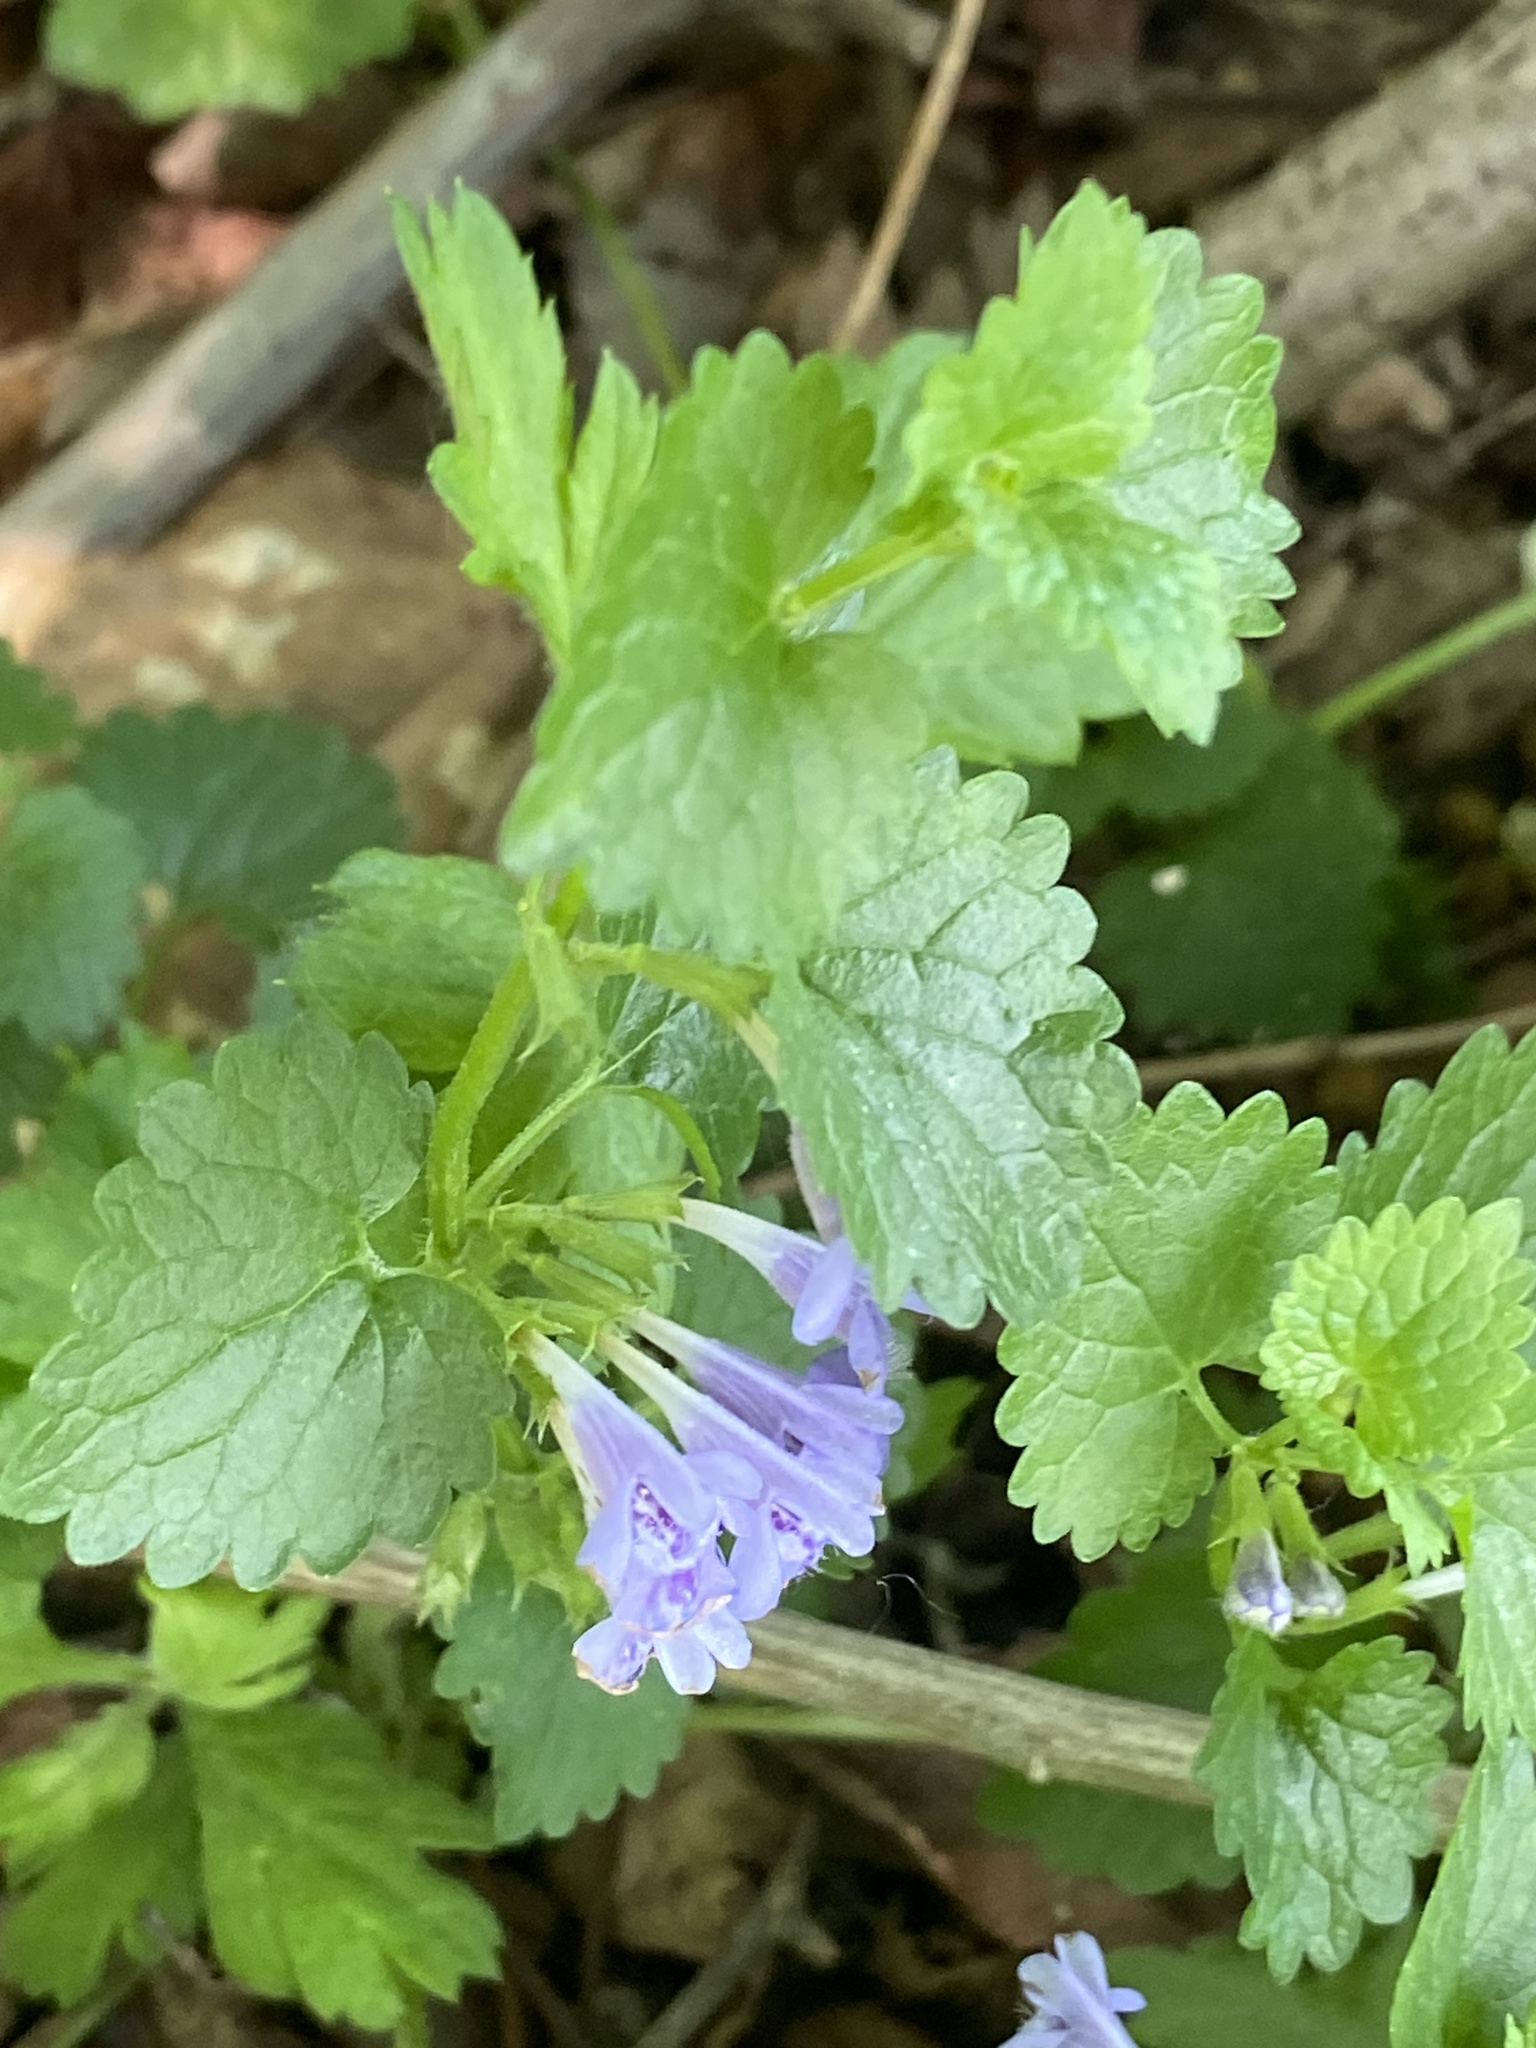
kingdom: Plantae
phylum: Tracheophyta
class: Magnoliopsida
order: Lamiales
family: Lamiaceae
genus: Glechoma
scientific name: Glechoma hederacea
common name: Ground ivy
